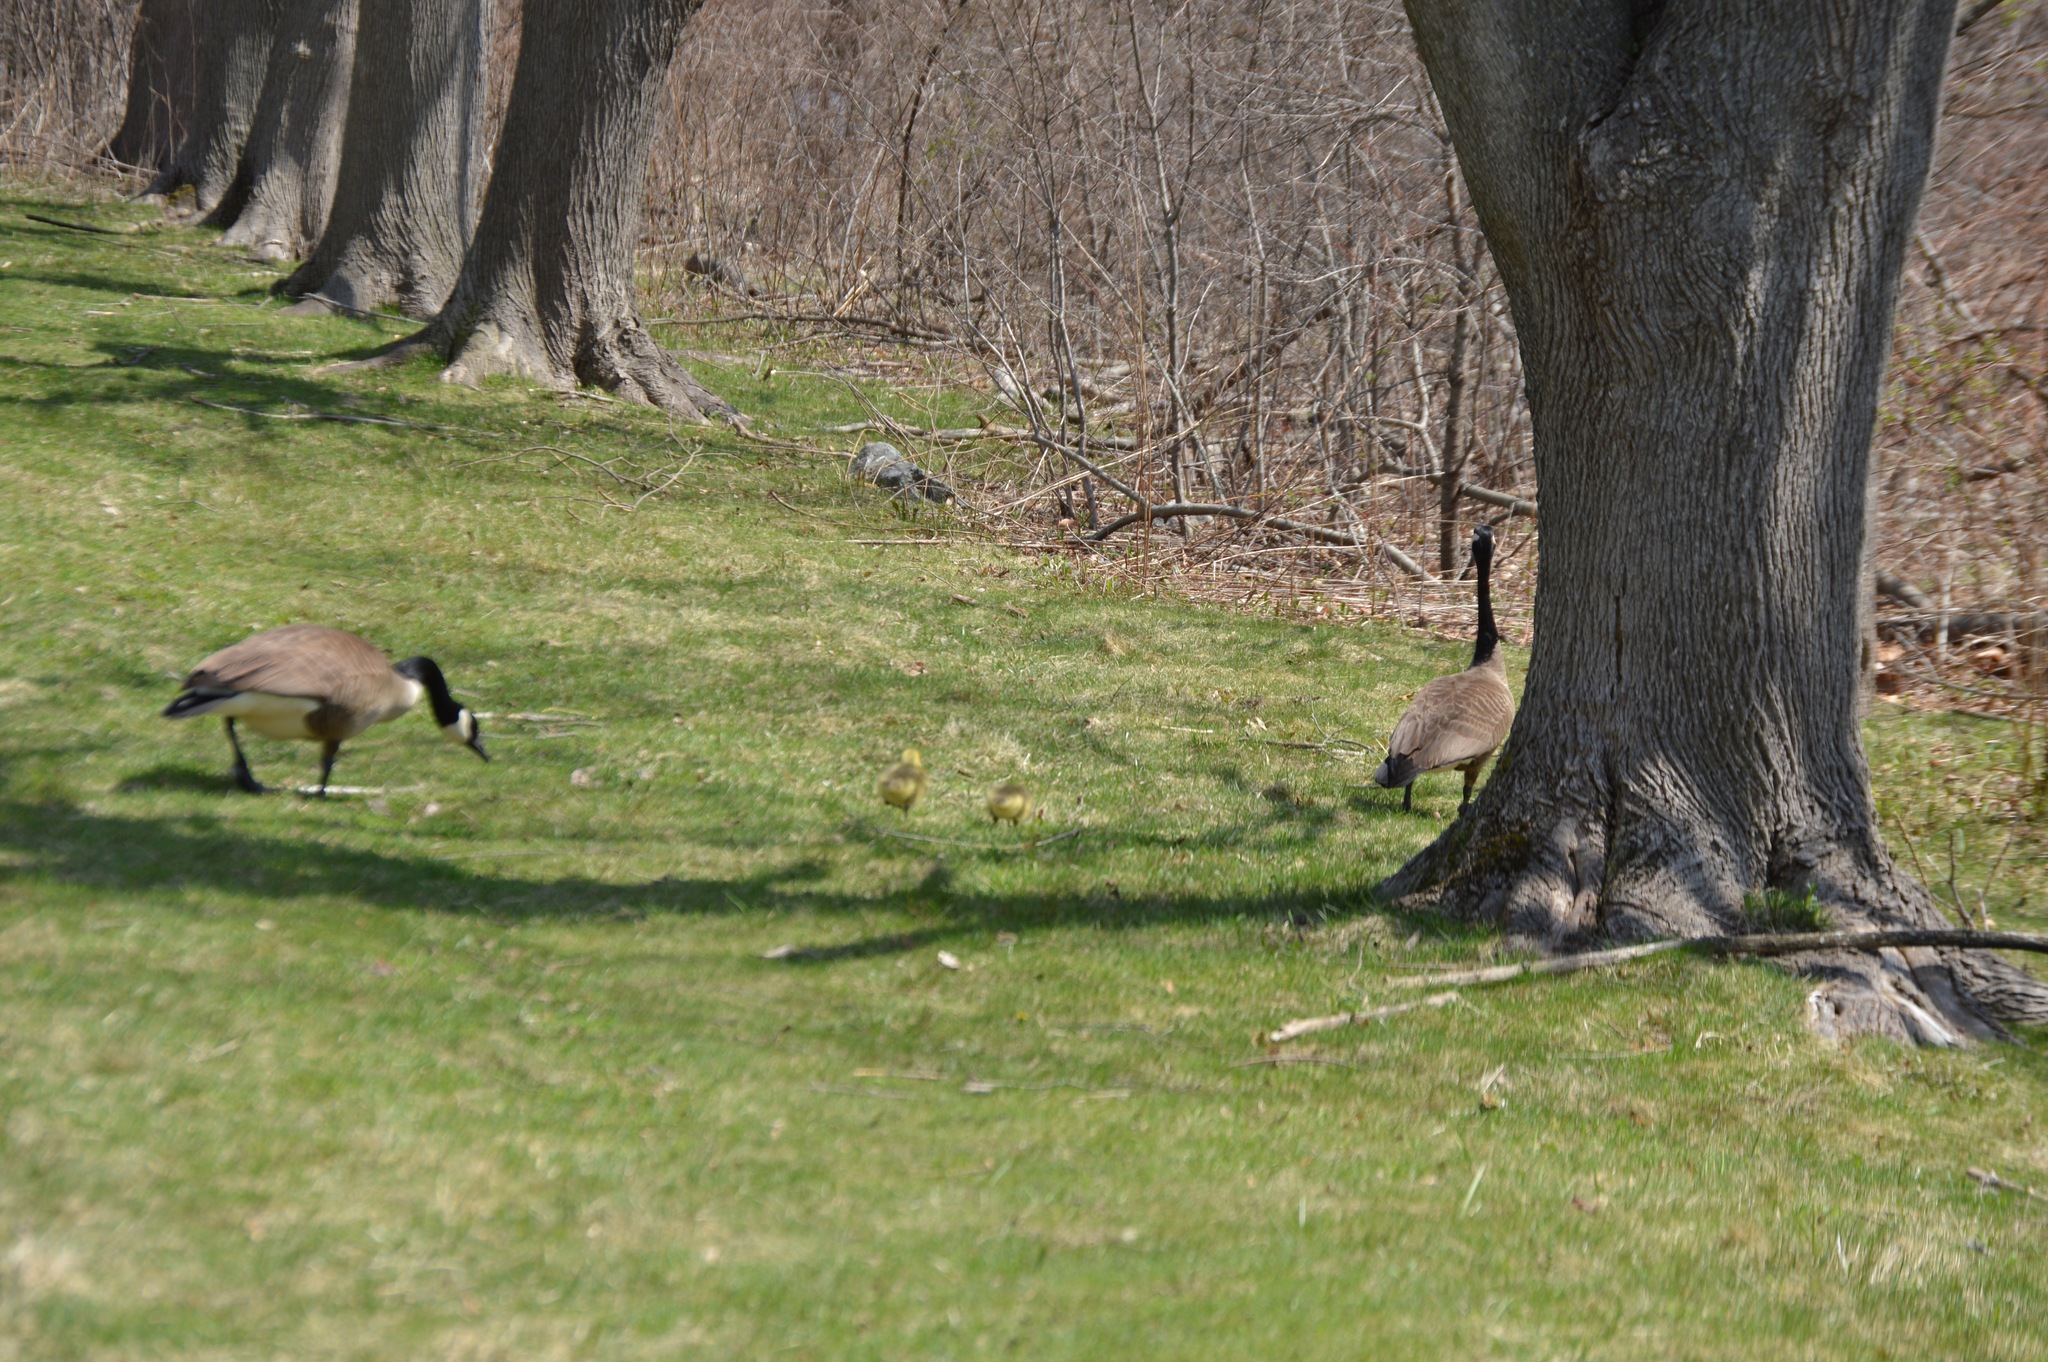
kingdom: Animalia
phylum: Chordata
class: Aves
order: Anseriformes
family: Anatidae
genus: Branta
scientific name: Branta canadensis
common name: Canada goose
